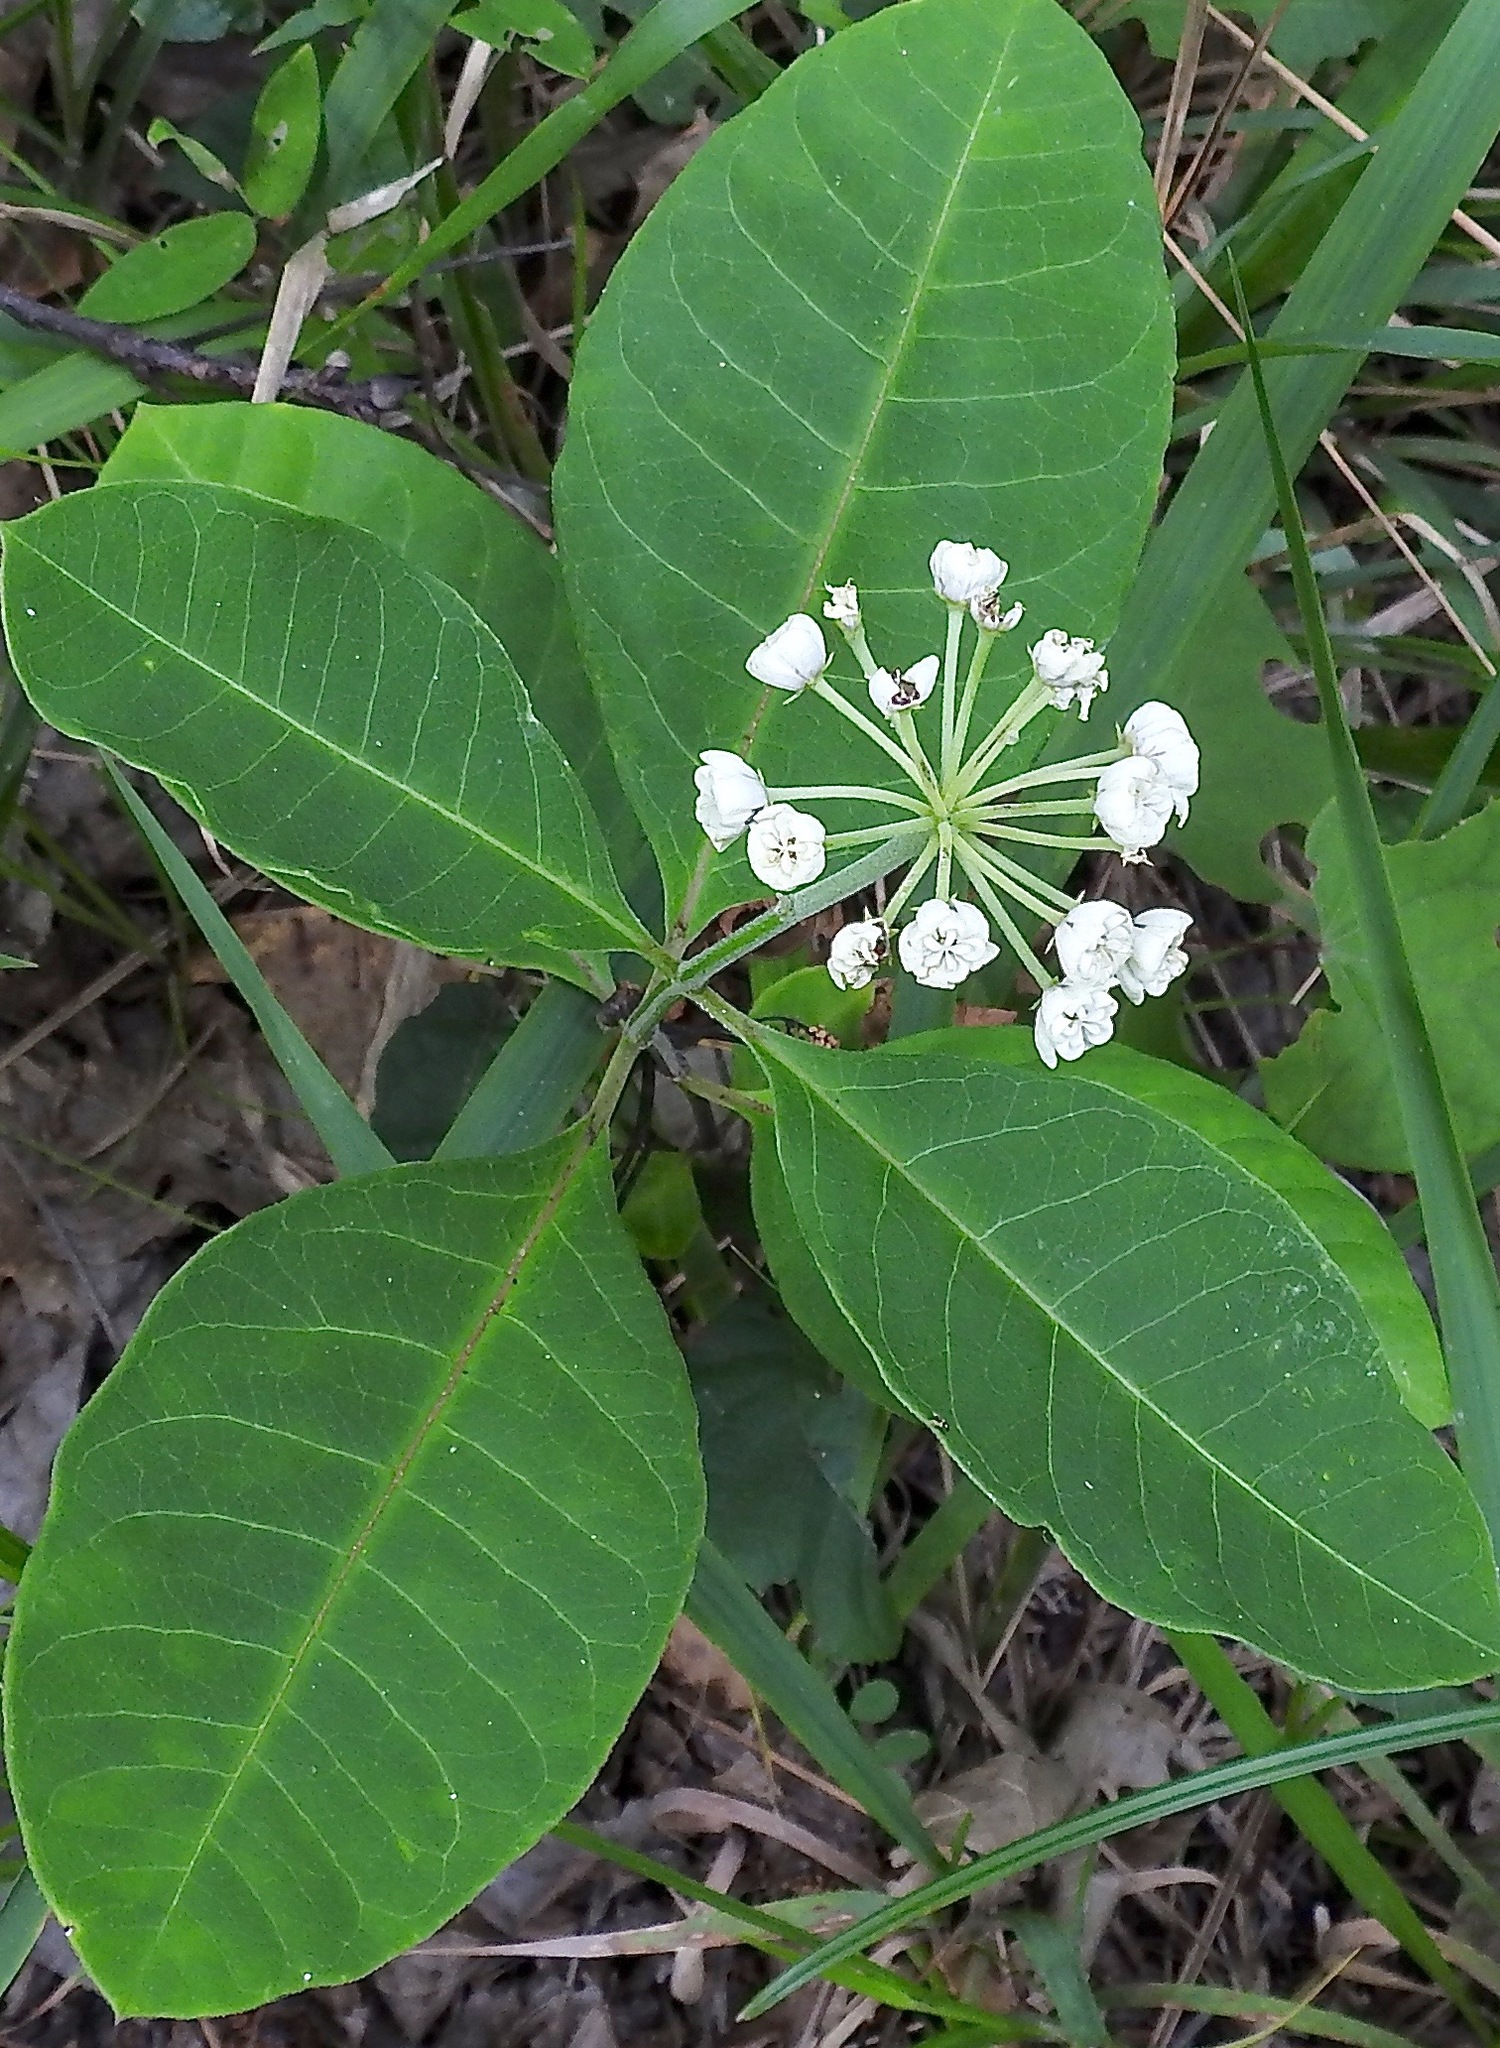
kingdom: Plantae
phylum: Tracheophyta
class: Magnoliopsida
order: Gentianales
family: Apocynaceae
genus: Asclepias
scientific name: Asclepias variegata
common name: Variegated milkweed
